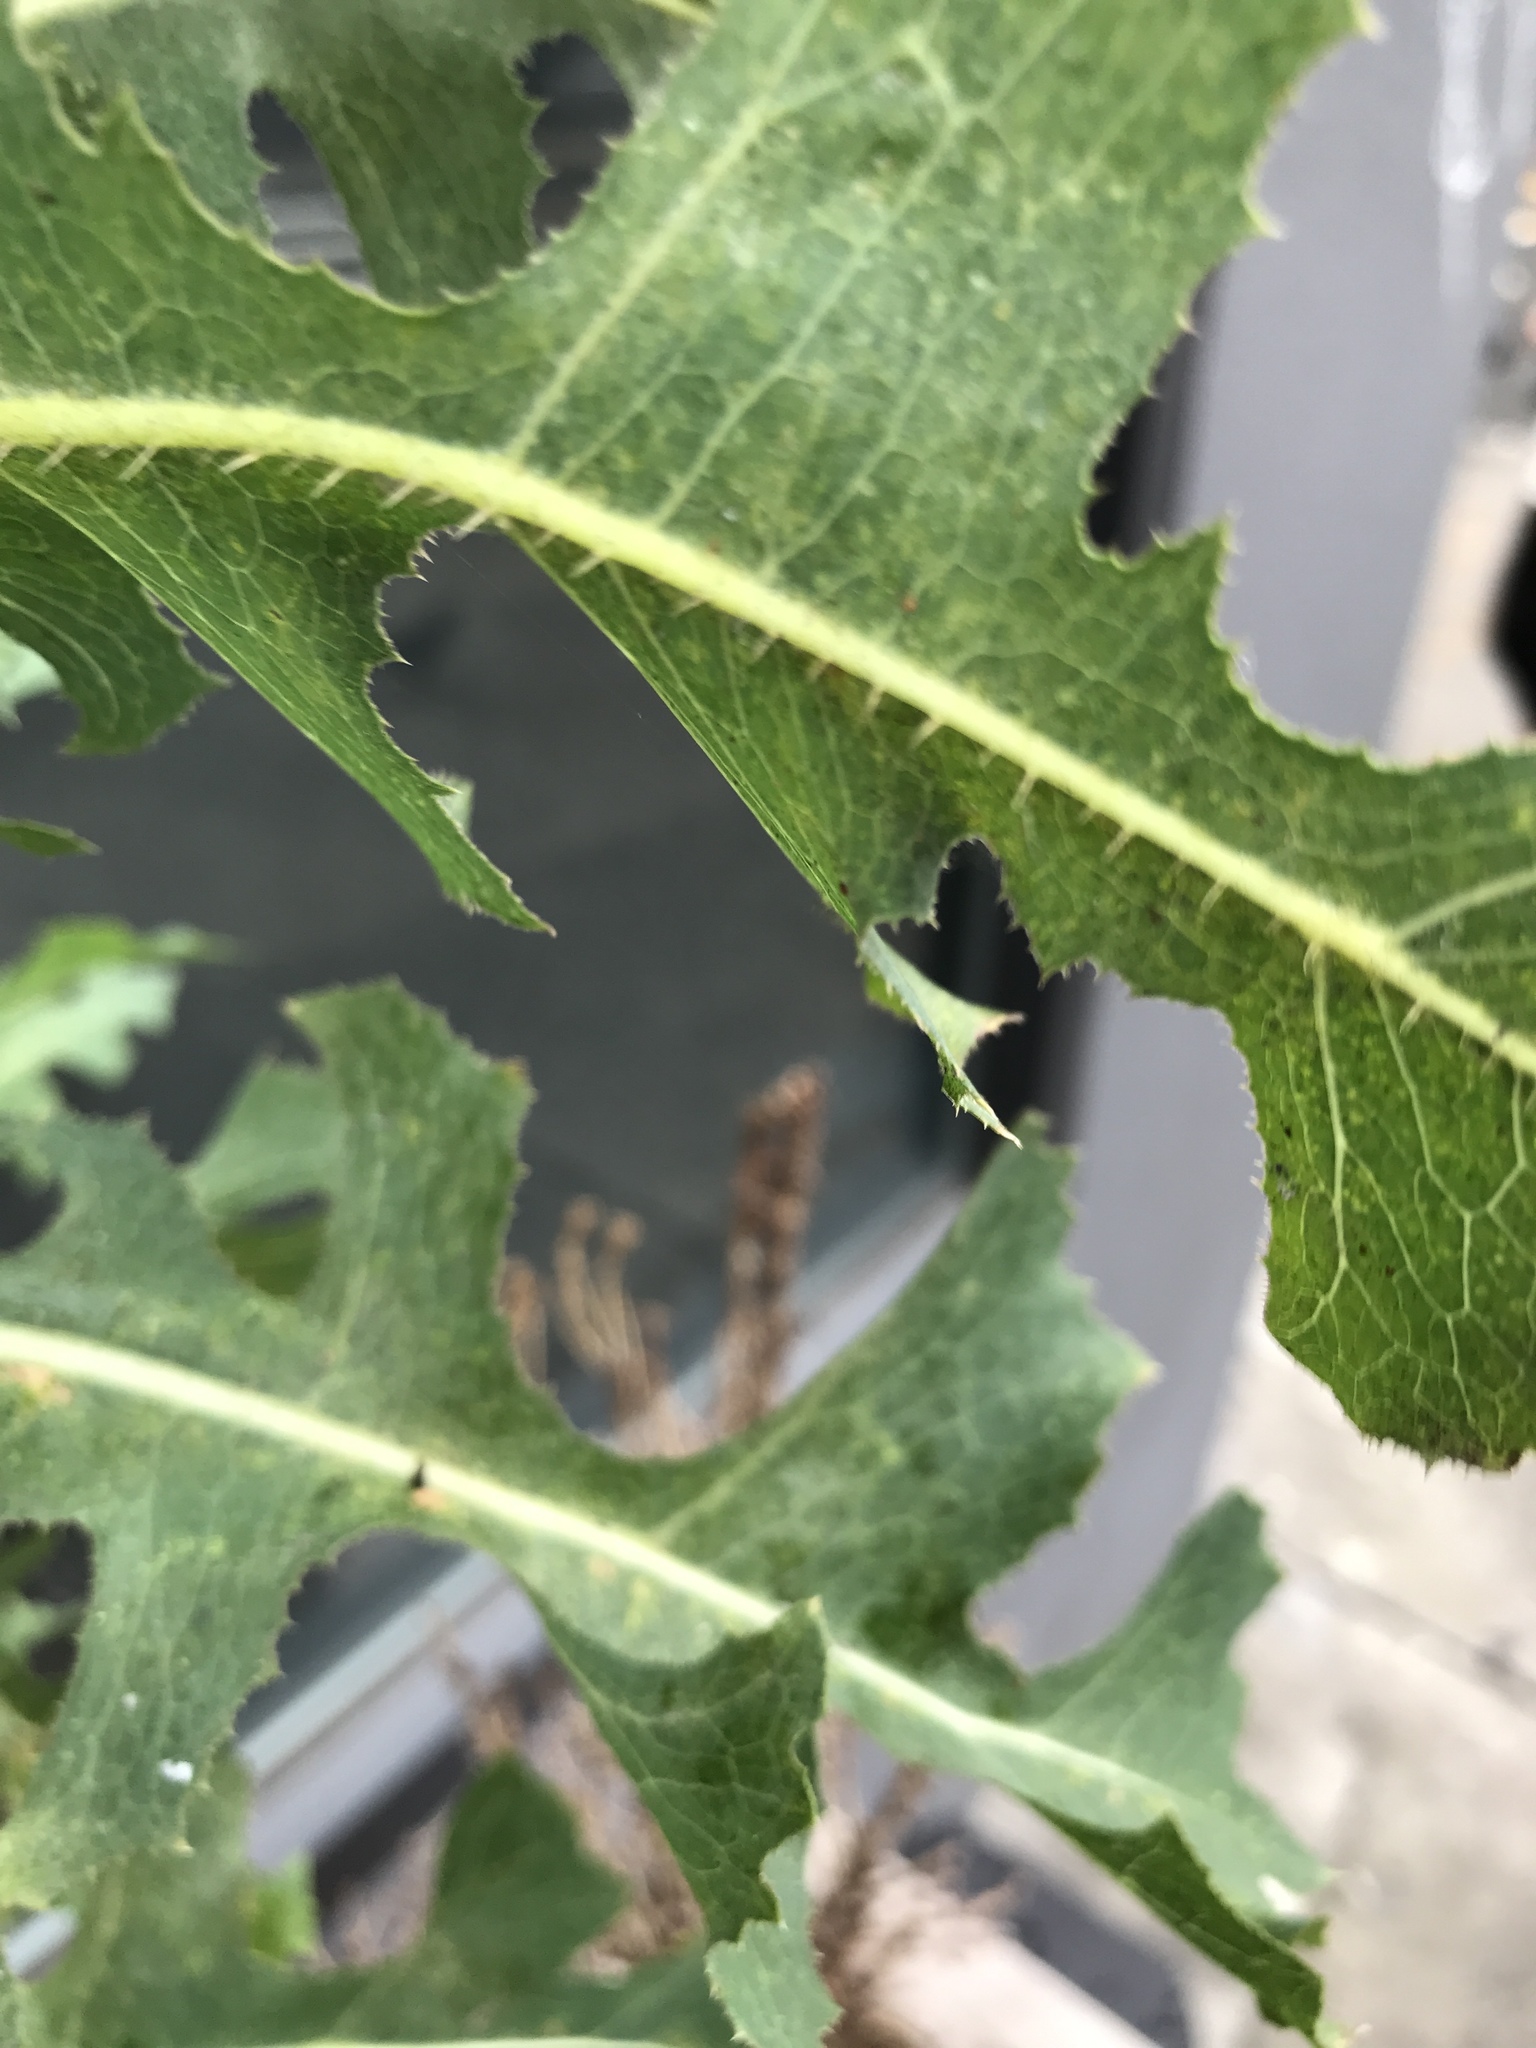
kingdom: Plantae
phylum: Tracheophyta
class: Magnoliopsida
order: Asterales
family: Asteraceae
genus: Lactuca
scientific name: Lactuca serriola
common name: Prickly lettuce
